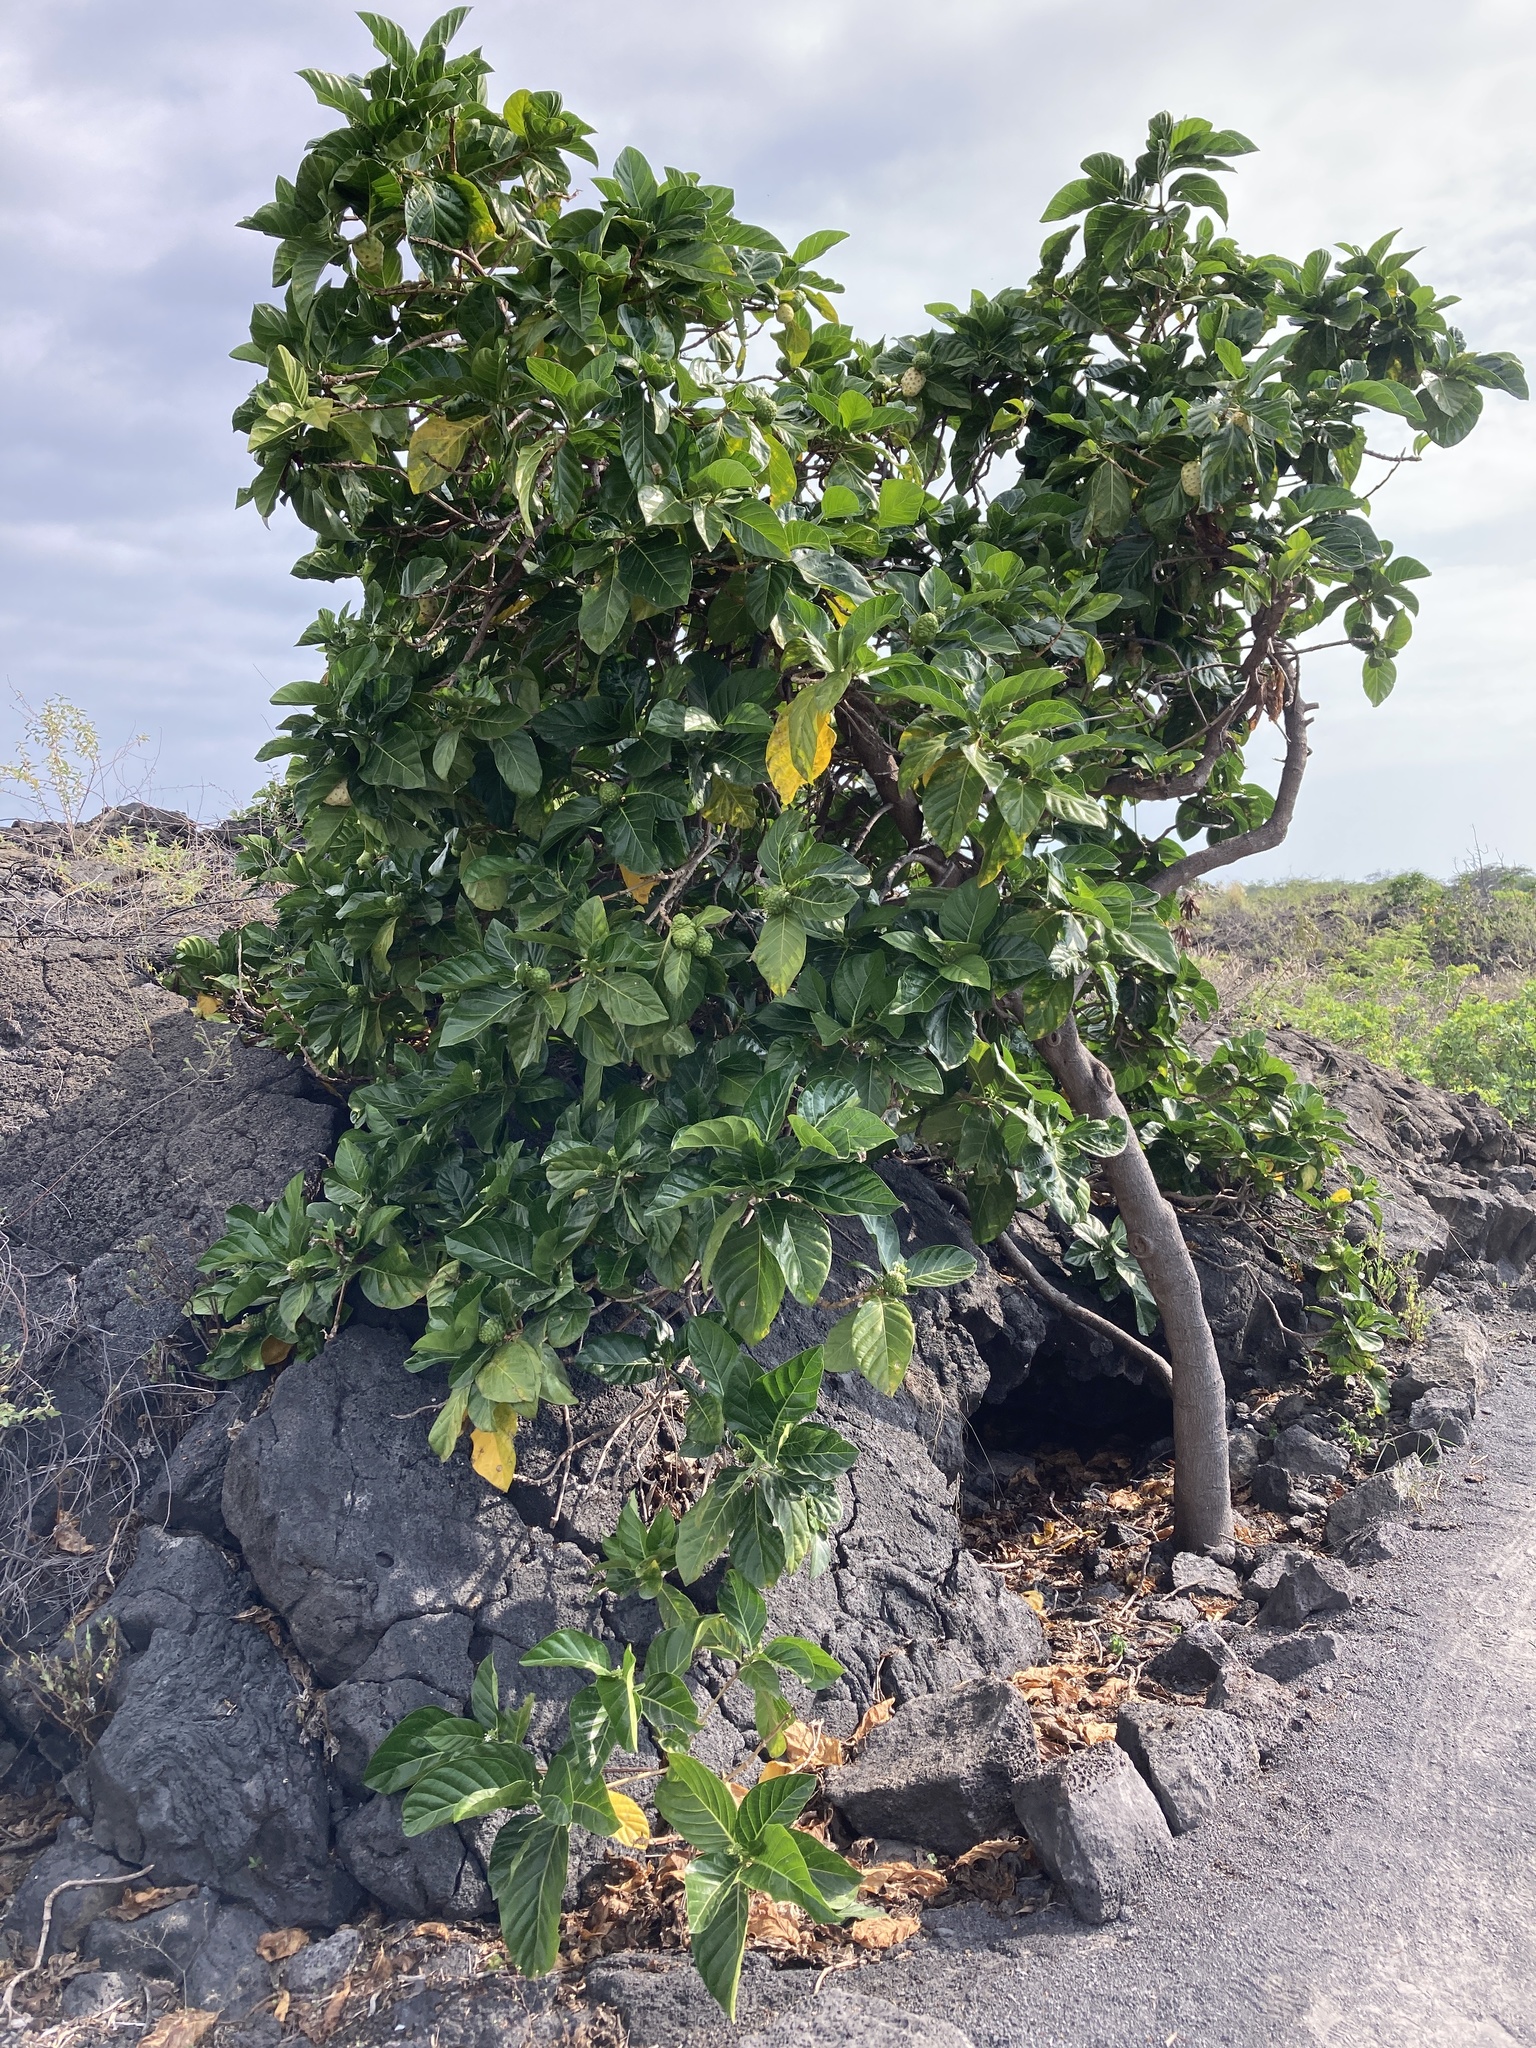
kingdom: Plantae
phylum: Tracheophyta
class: Magnoliopsida
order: Gentianales
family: Rubiaceae
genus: Morinda
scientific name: Morinda citrifolia
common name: Indian-mulberry
